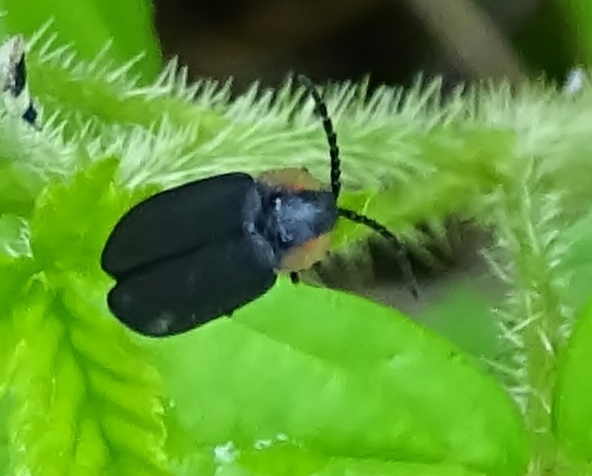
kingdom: Animalia
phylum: Arthropoda
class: Insecta
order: Coleoptera
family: Lampyridae
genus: Lucidota
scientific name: Lucidota atra
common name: Black firefly
